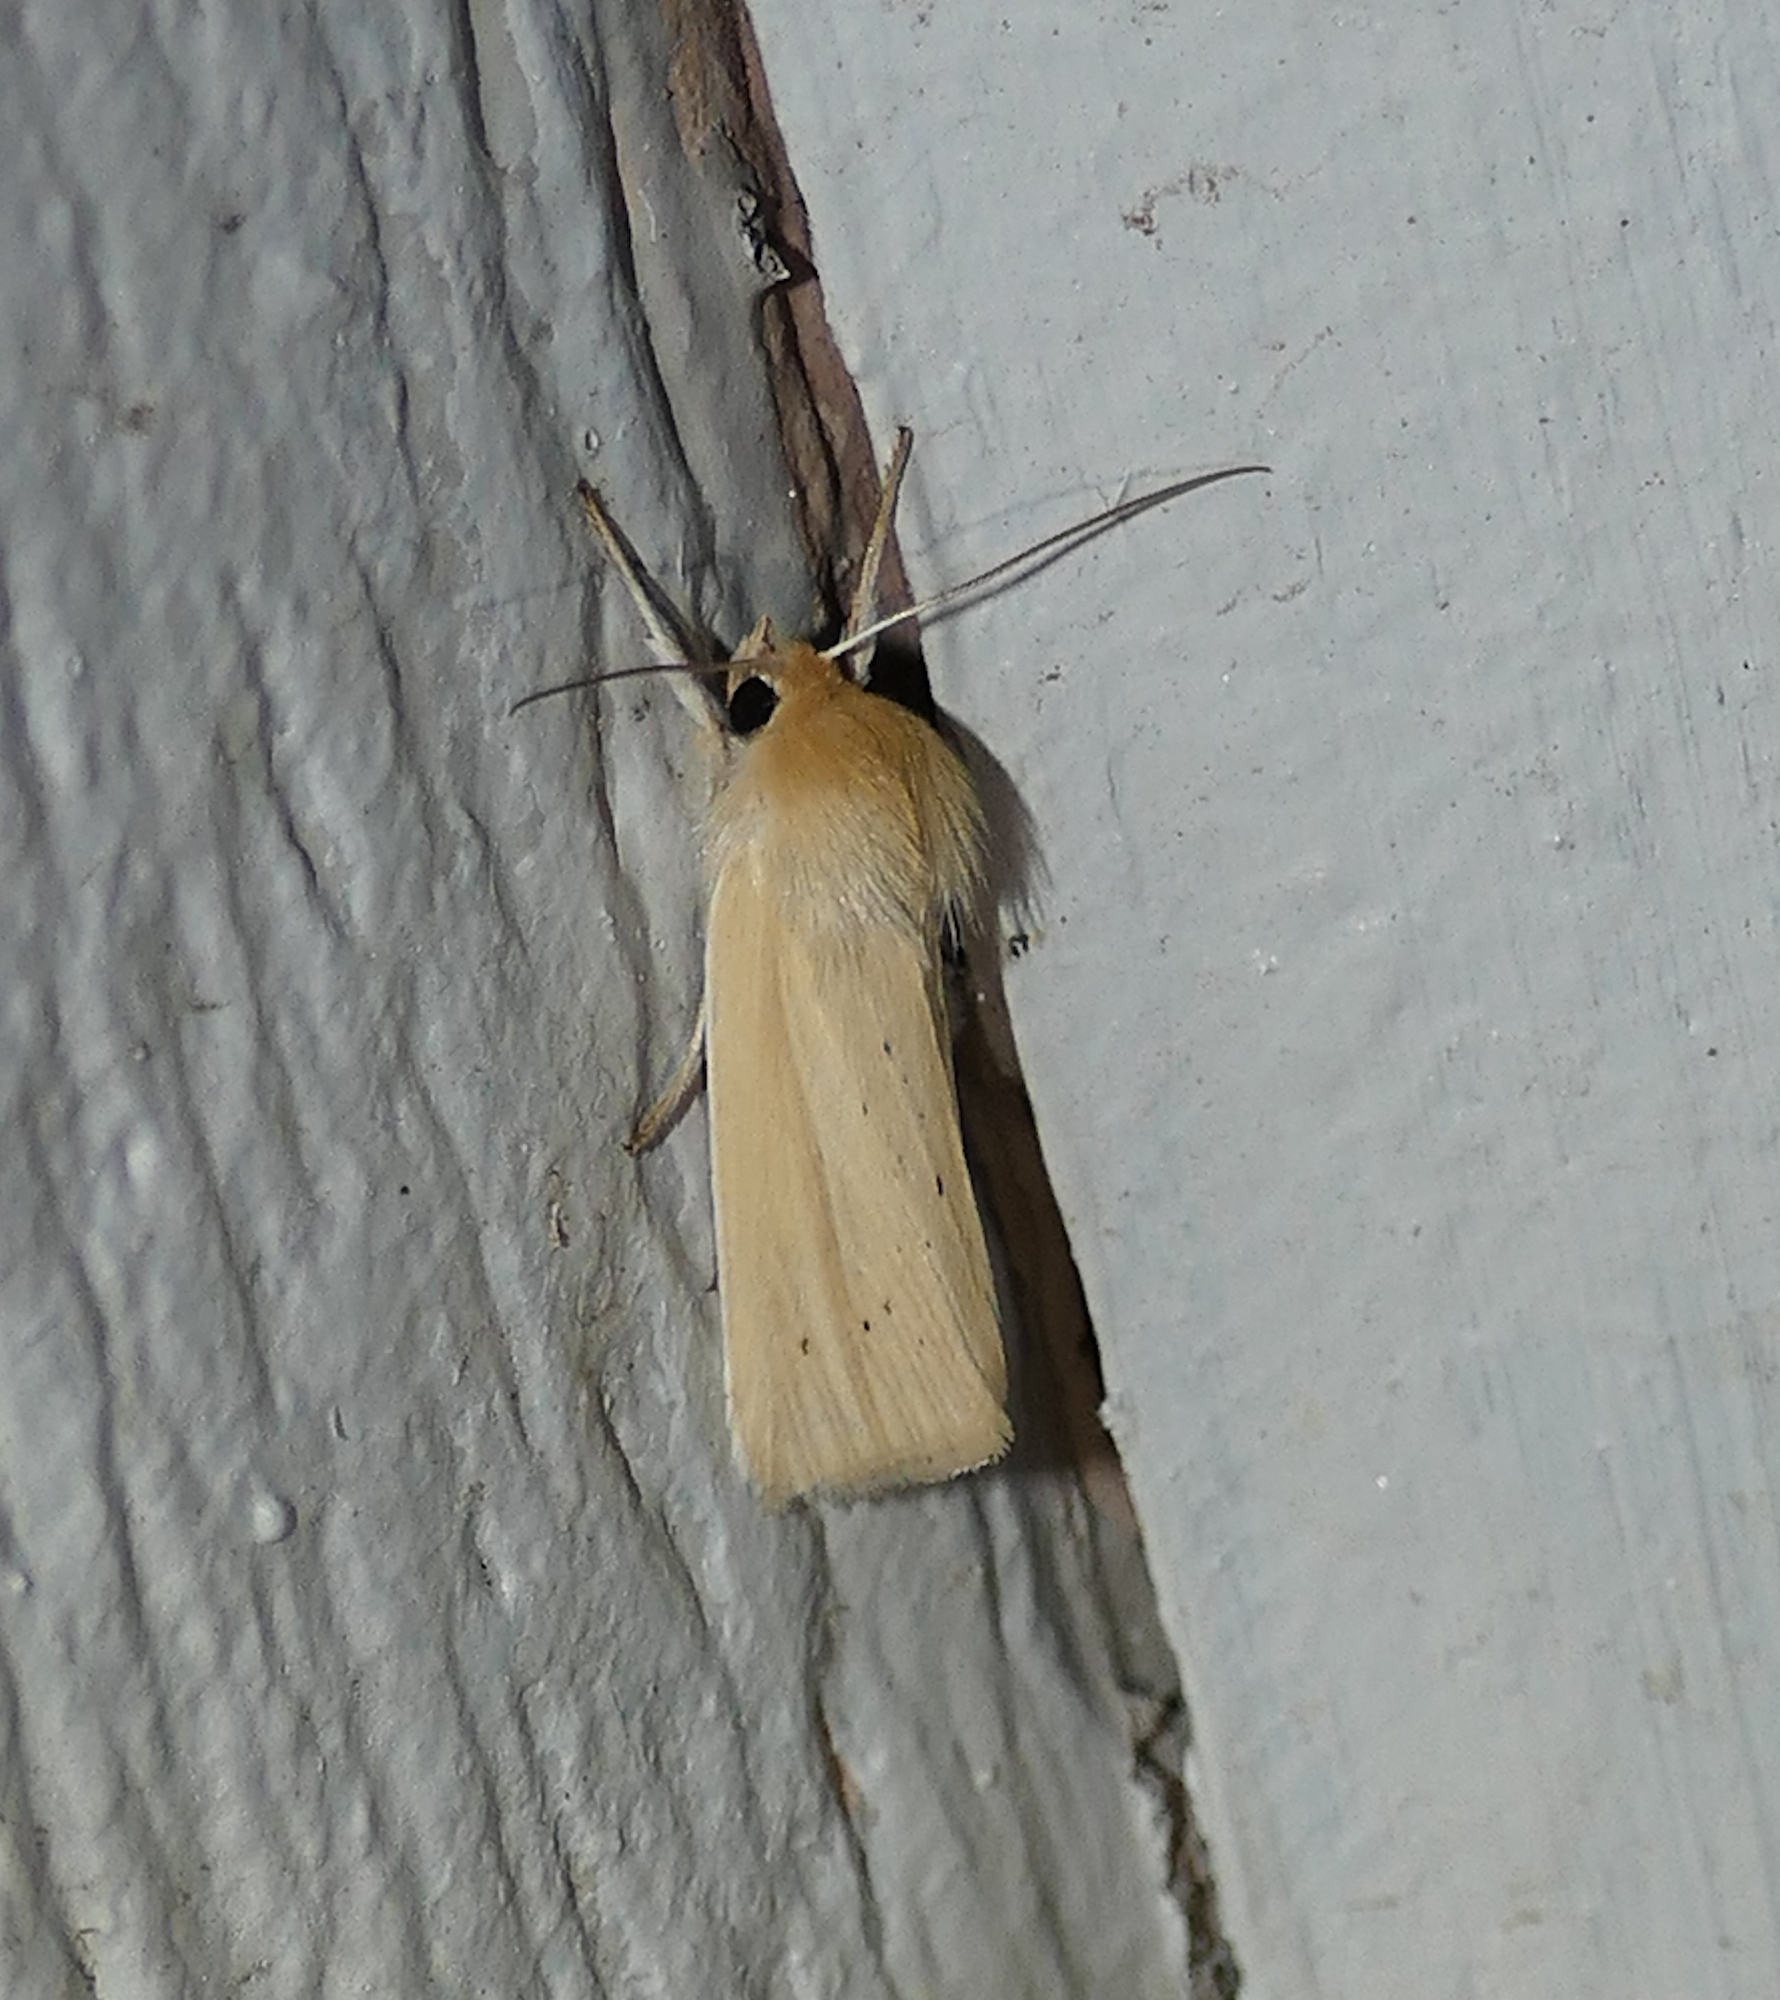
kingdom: Animalia
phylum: Arthropoda
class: Insecta
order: Lepidoptera
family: Noctuidae
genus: Neleucania
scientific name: Neleucania praegracilis
